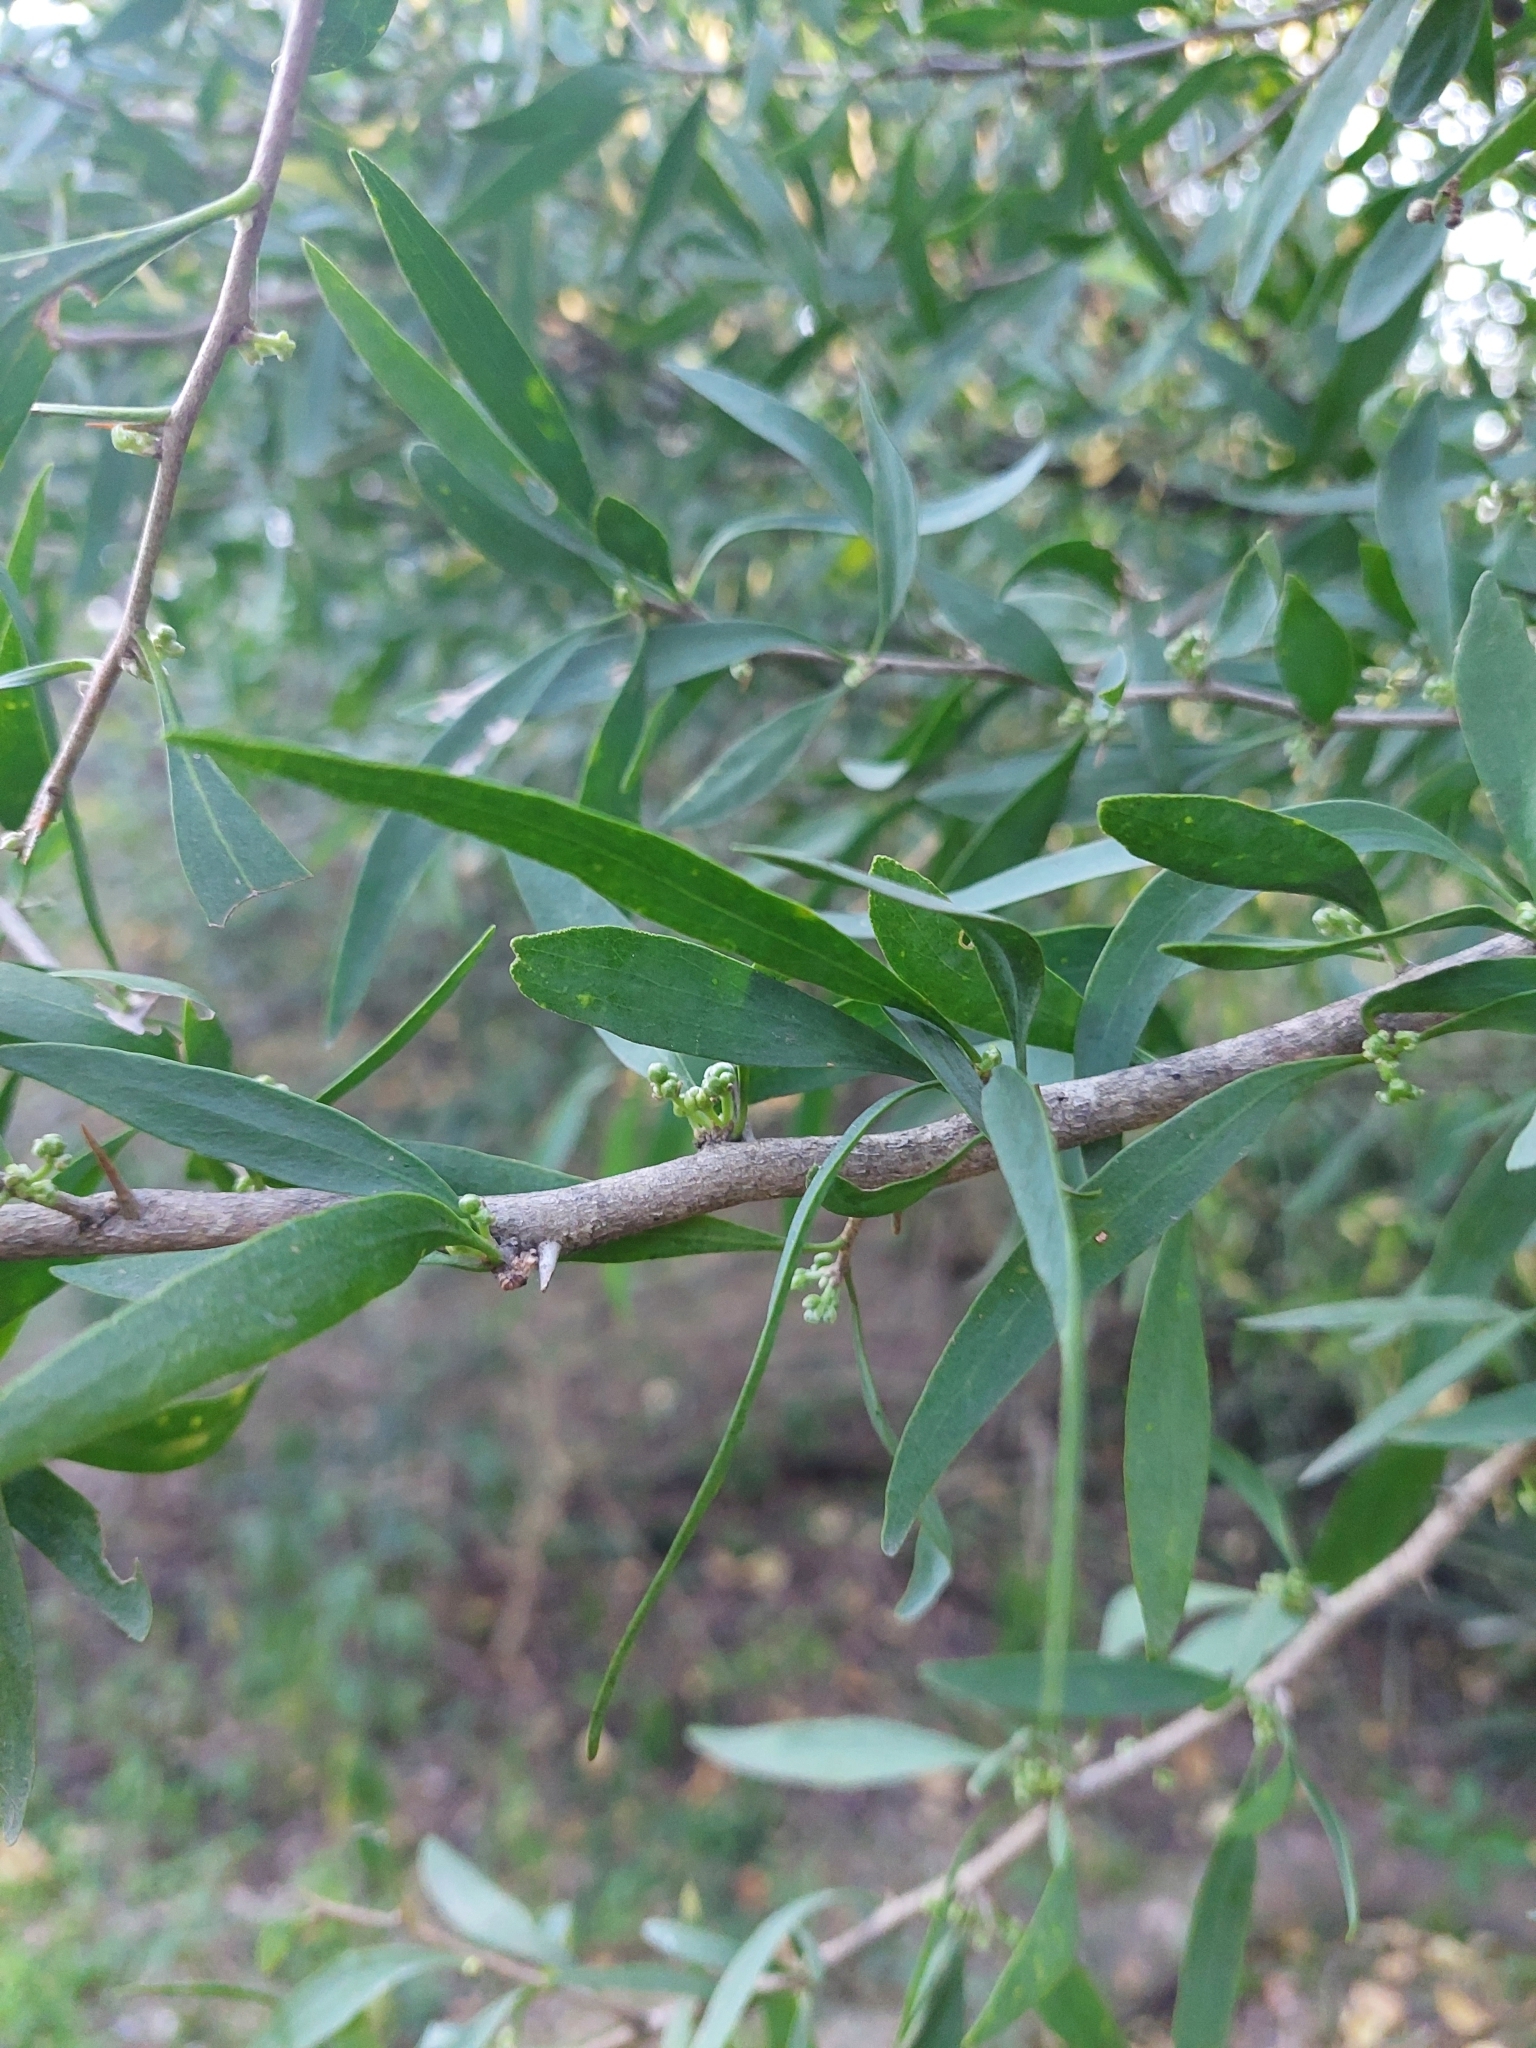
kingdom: Plantae
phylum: Tracheophyta
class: Magnoliopsida
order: Santalales
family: Cervantesiaceae
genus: Acanthosyris
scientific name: Acanthosyris falcata
